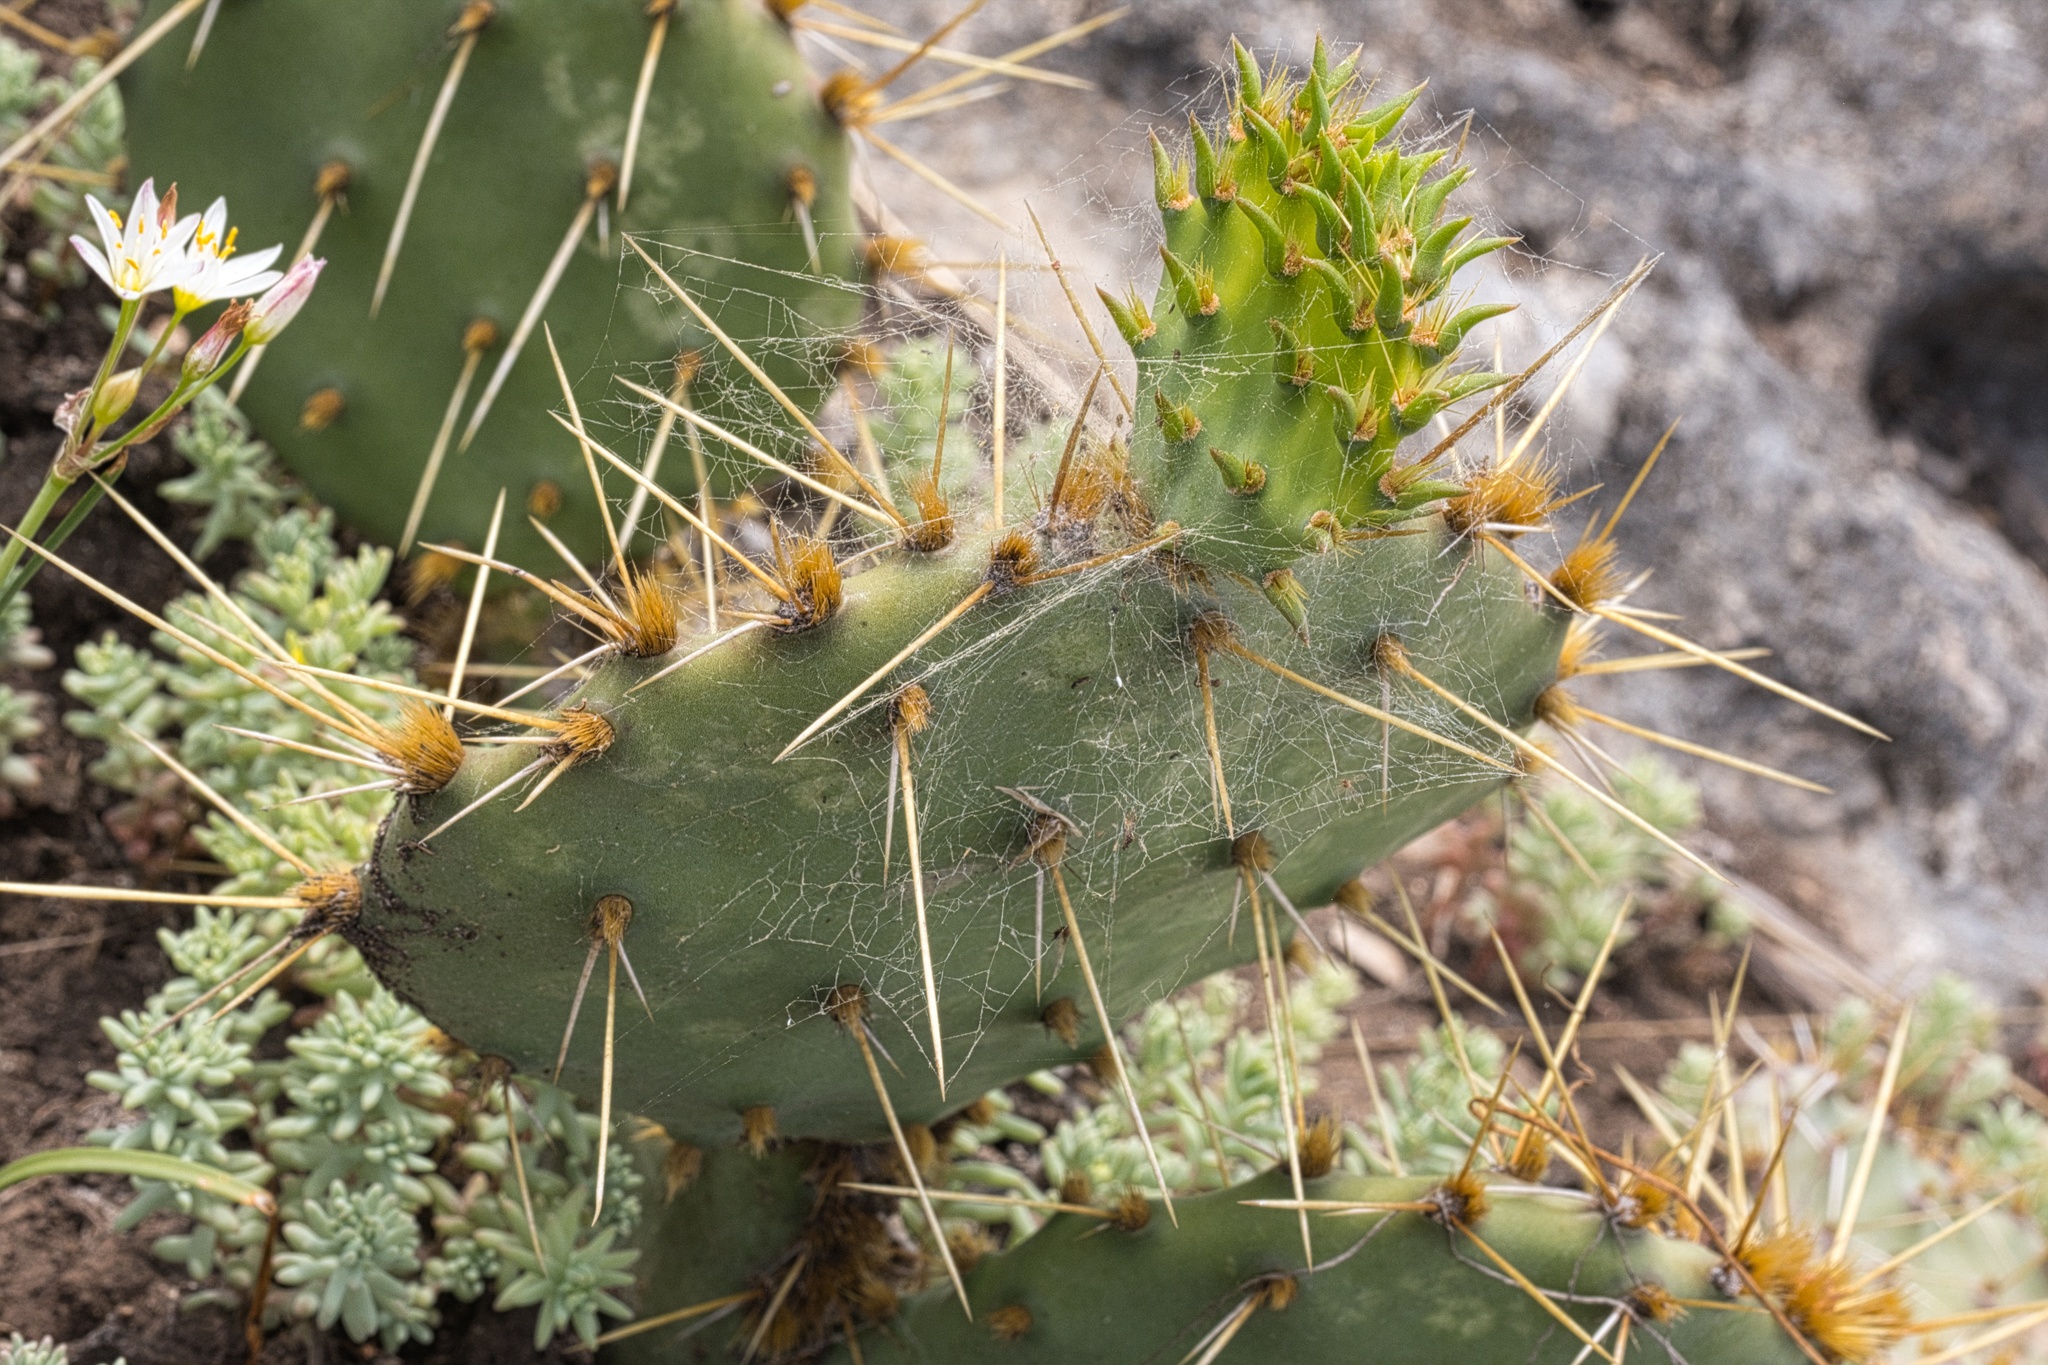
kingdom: Plantae
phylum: Tracheophyta
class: Magnoliopsida
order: Caryophyllales
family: Cactaceae
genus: Opuntia
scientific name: Opuntia engelmannii
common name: Cactus-apple
